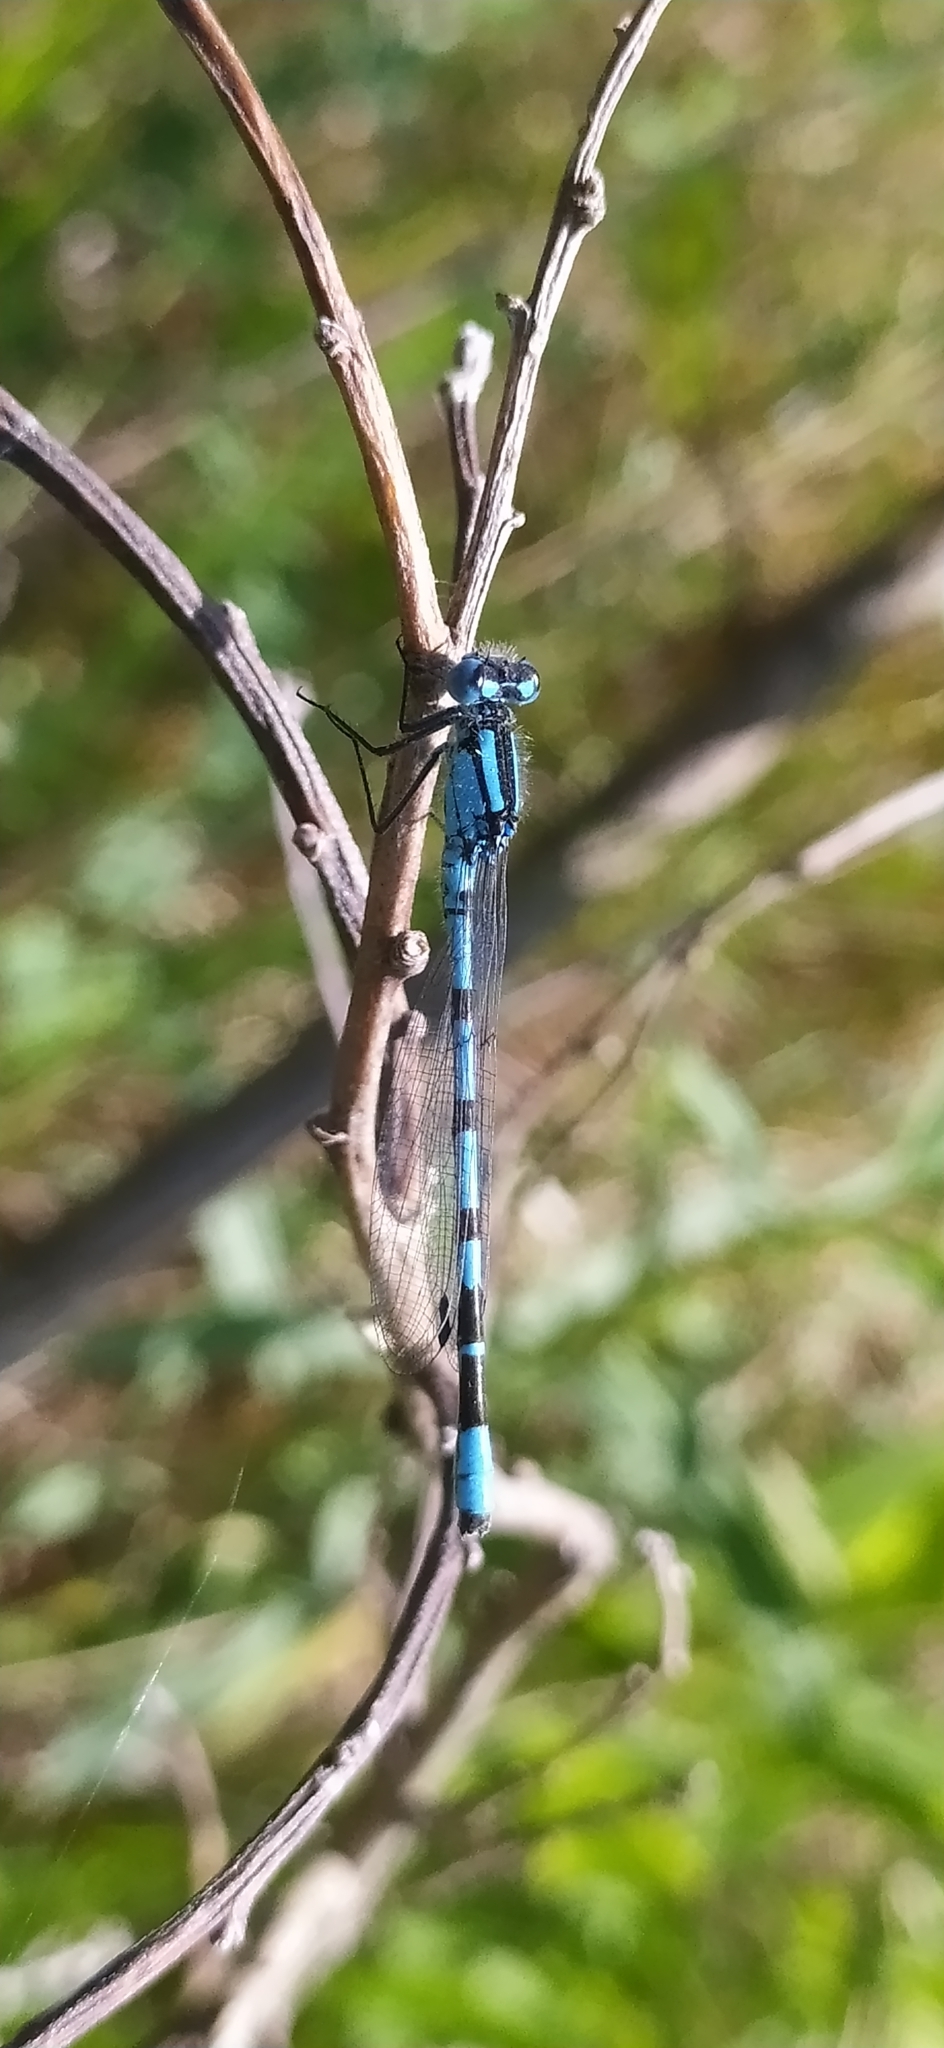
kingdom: Animalia
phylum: Arthropoda
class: Insecta
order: Odonata
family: Coenagrionidae
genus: Enallagma
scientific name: Enallagma cyathigerum
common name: Common blue damselfly
